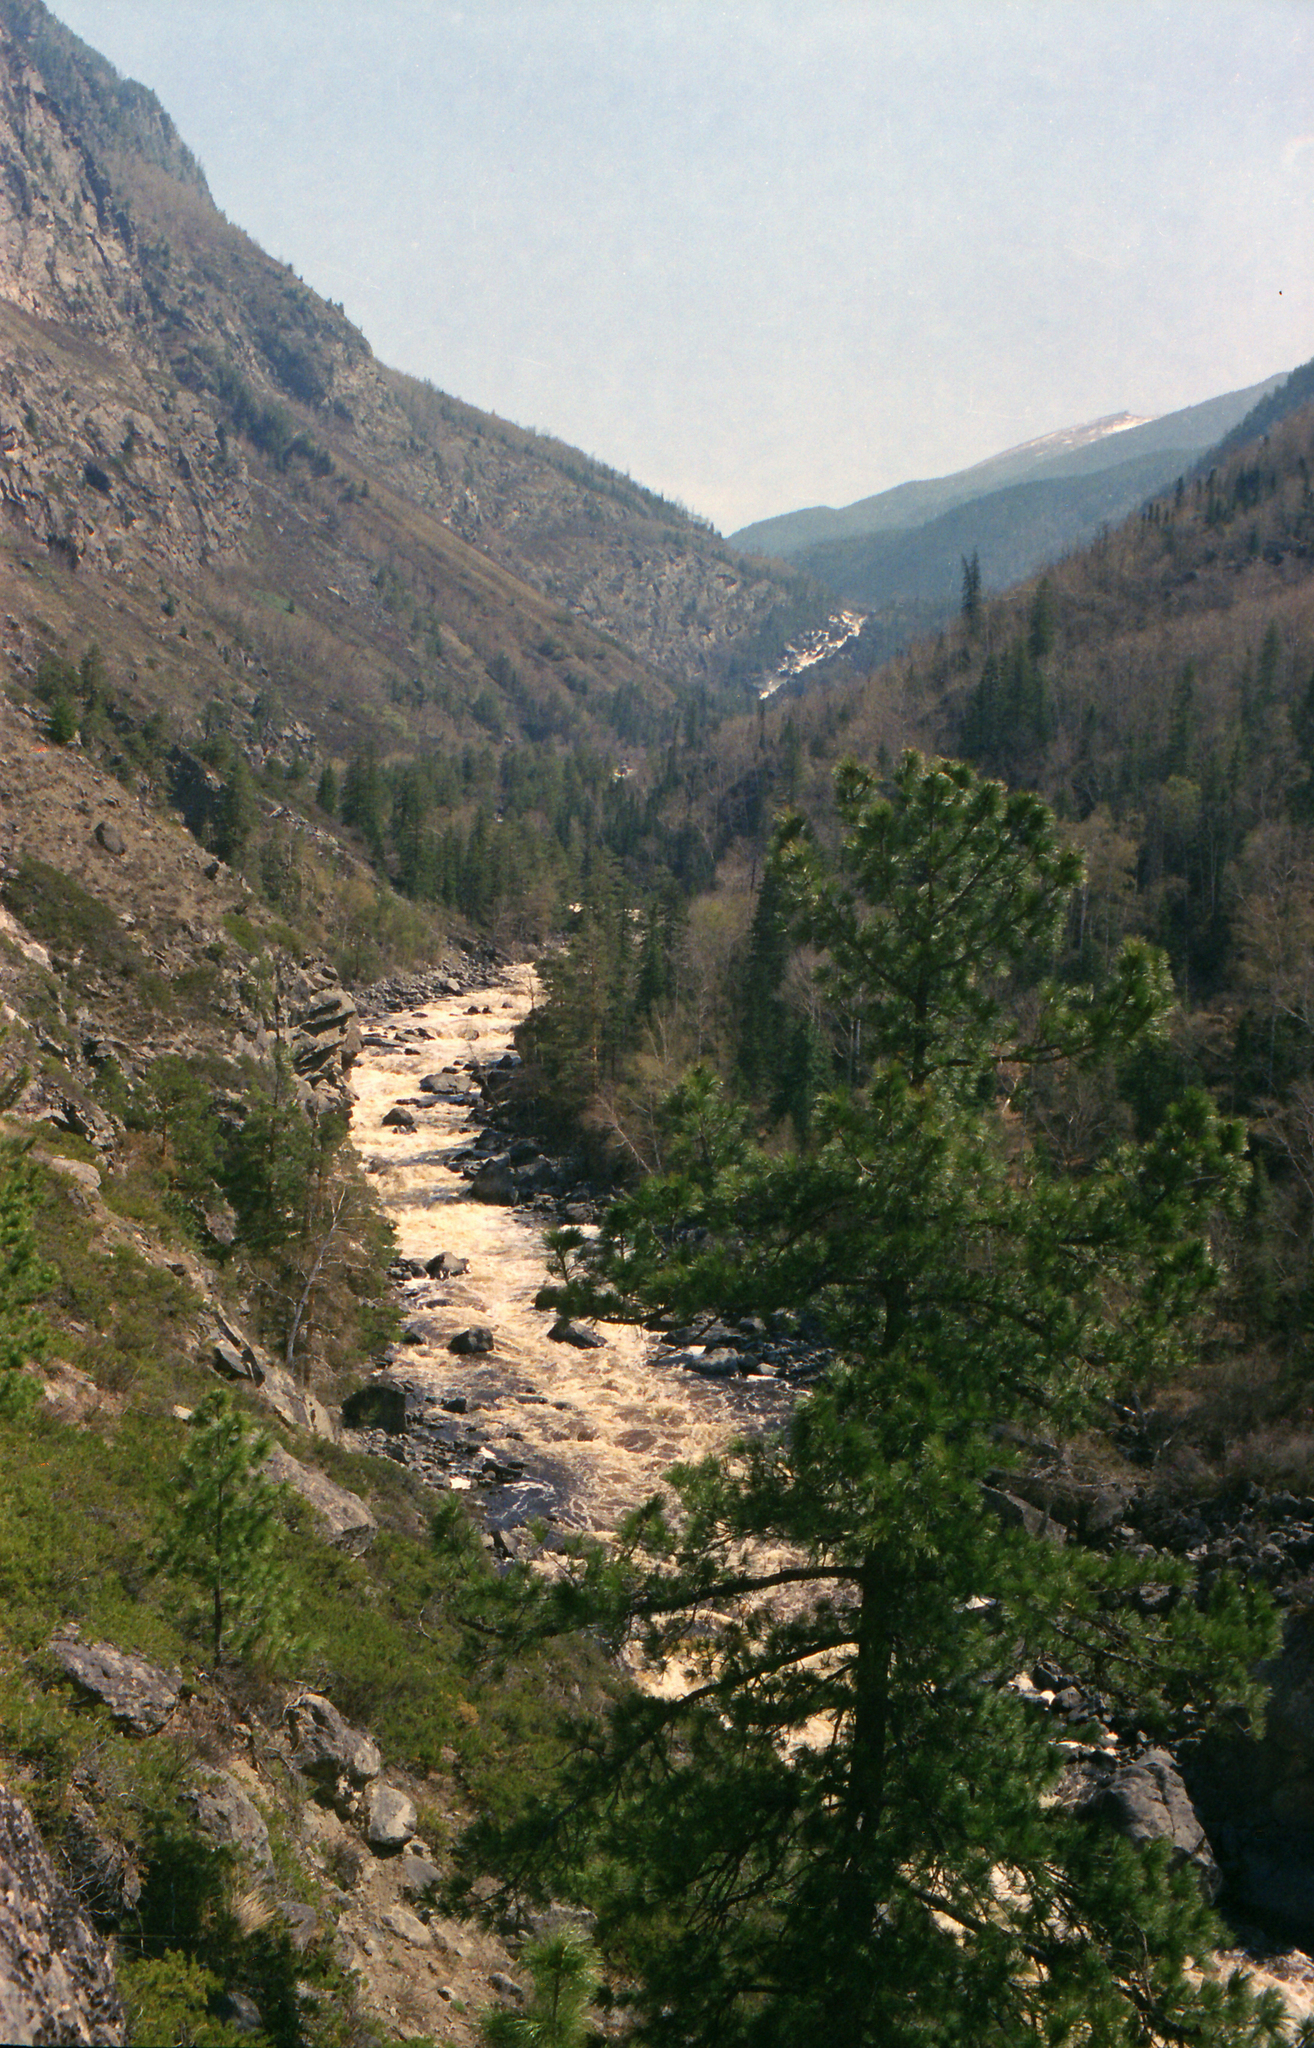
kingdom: Plantae
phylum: Tracheophyta
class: Pinopsida
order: Pinales
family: Pinaceae
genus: Pinus
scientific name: Pinus sibirica
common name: Siberian pine
